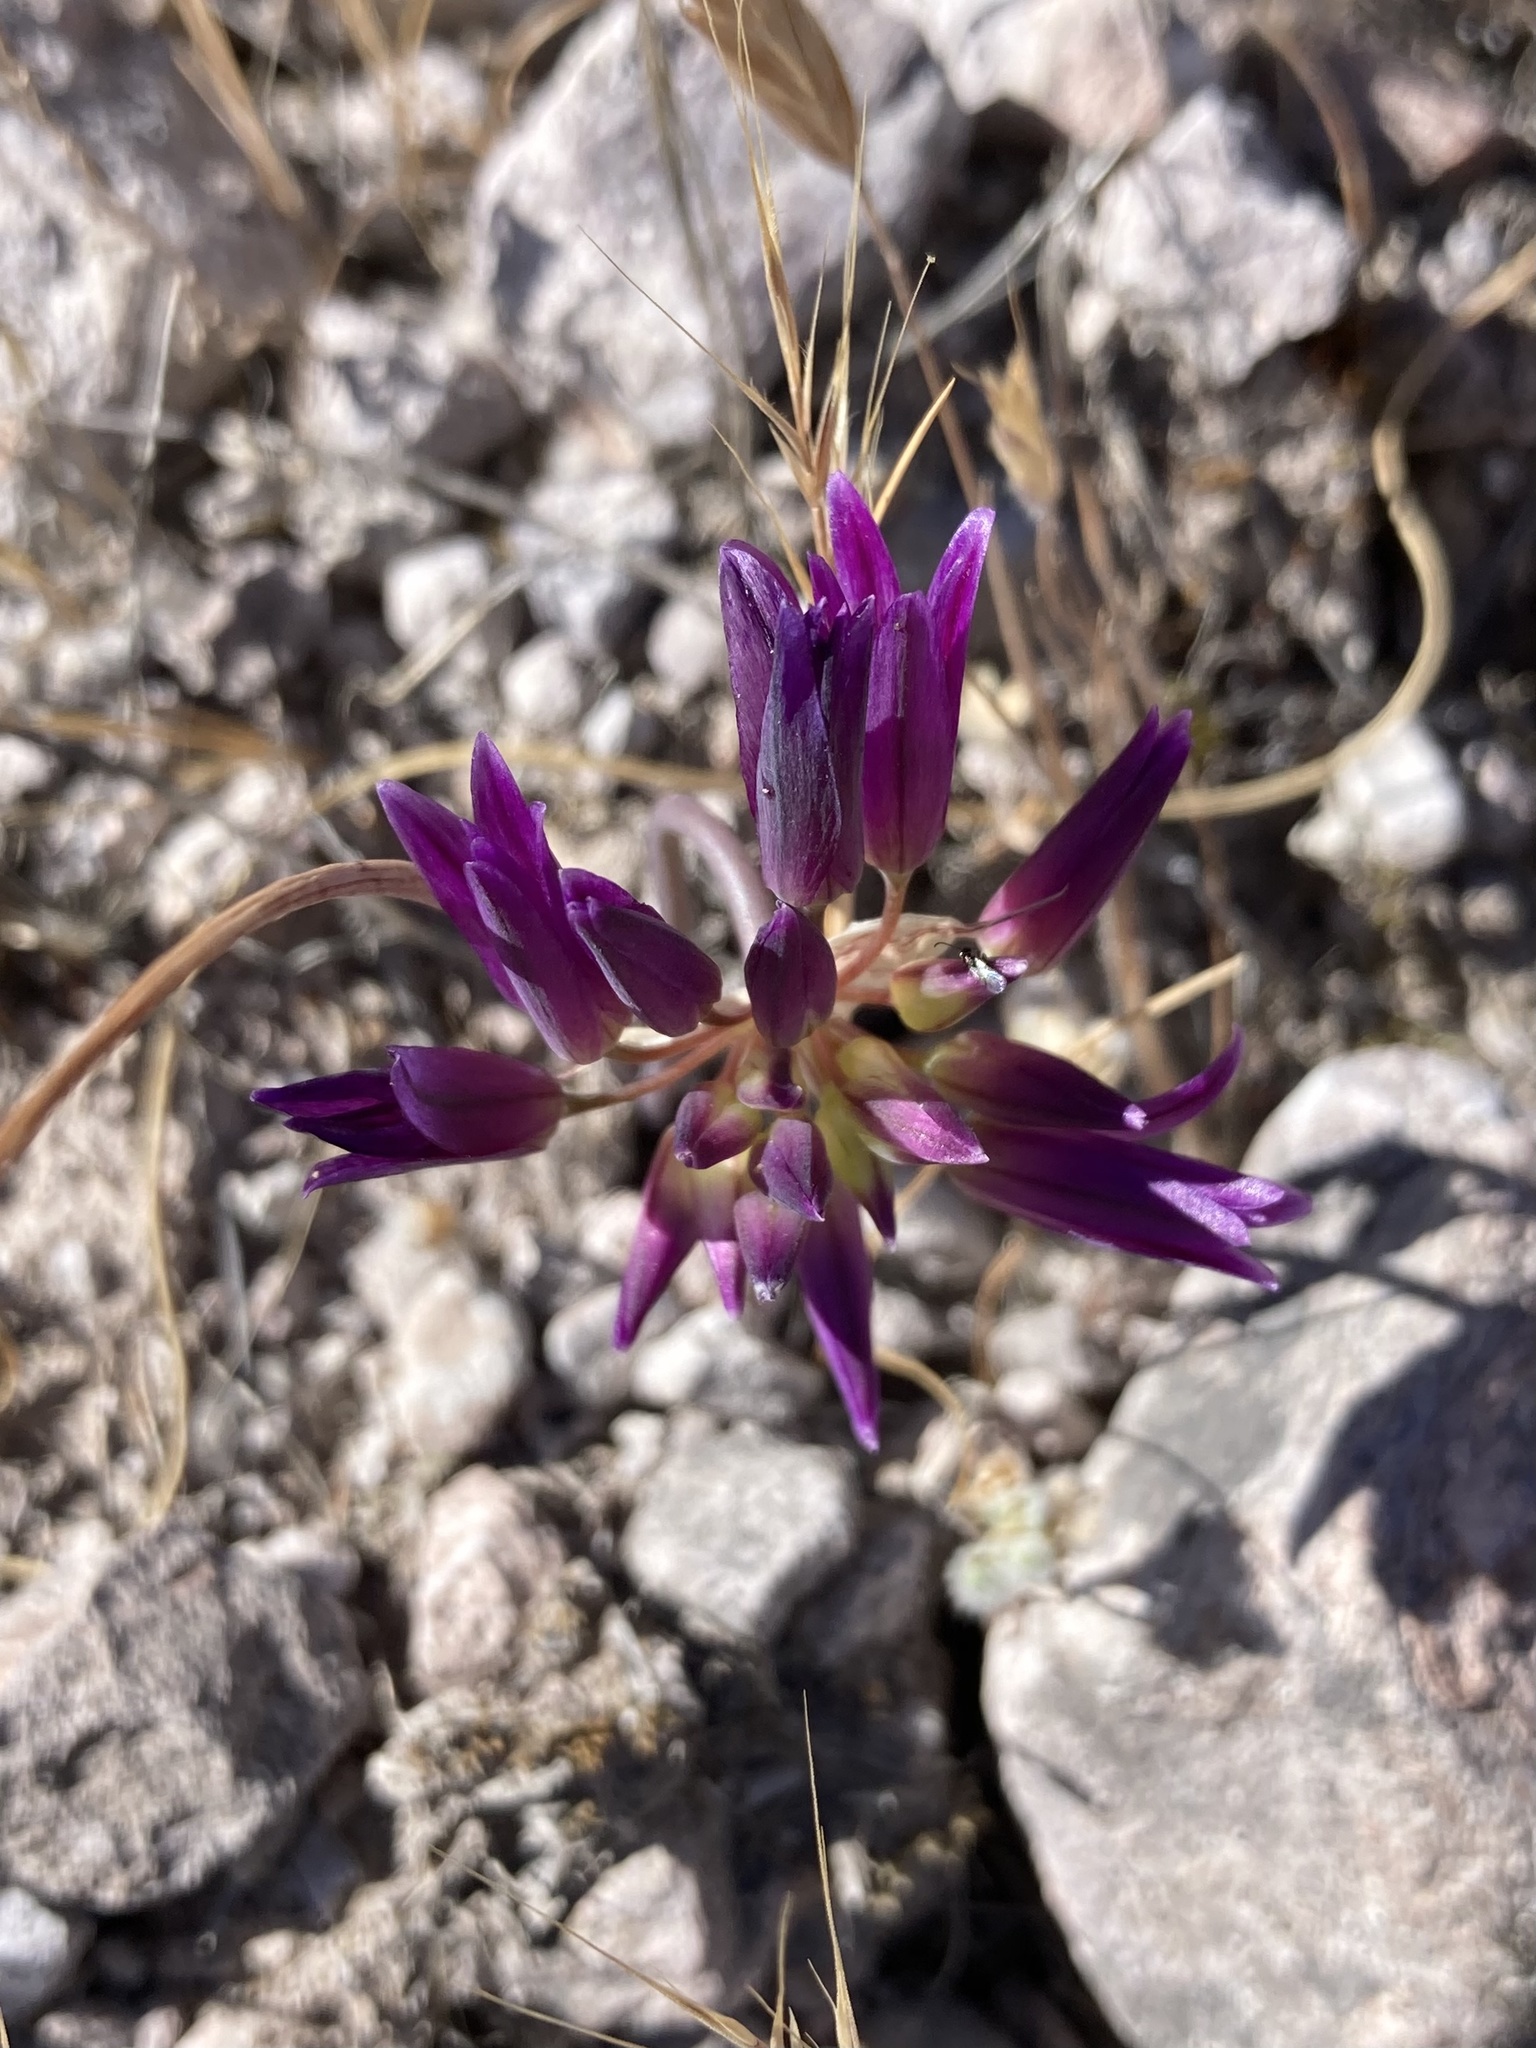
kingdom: Plantae
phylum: Tracheophyta
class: Liliopsida
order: Asparagales
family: Amaryllidaceae
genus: Allium
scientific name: Allium fimbriatum
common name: Fringed onion
